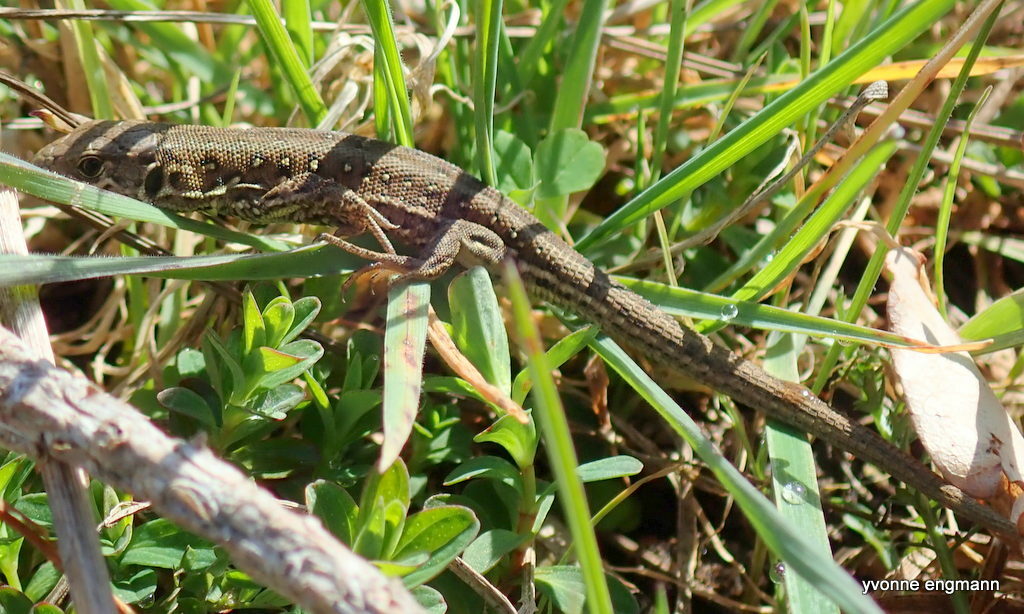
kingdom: Animalia
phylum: Chordata
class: Squamata
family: Lacertidae
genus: Lacerta
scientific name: Lacerta agilis
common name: Sand lizard
